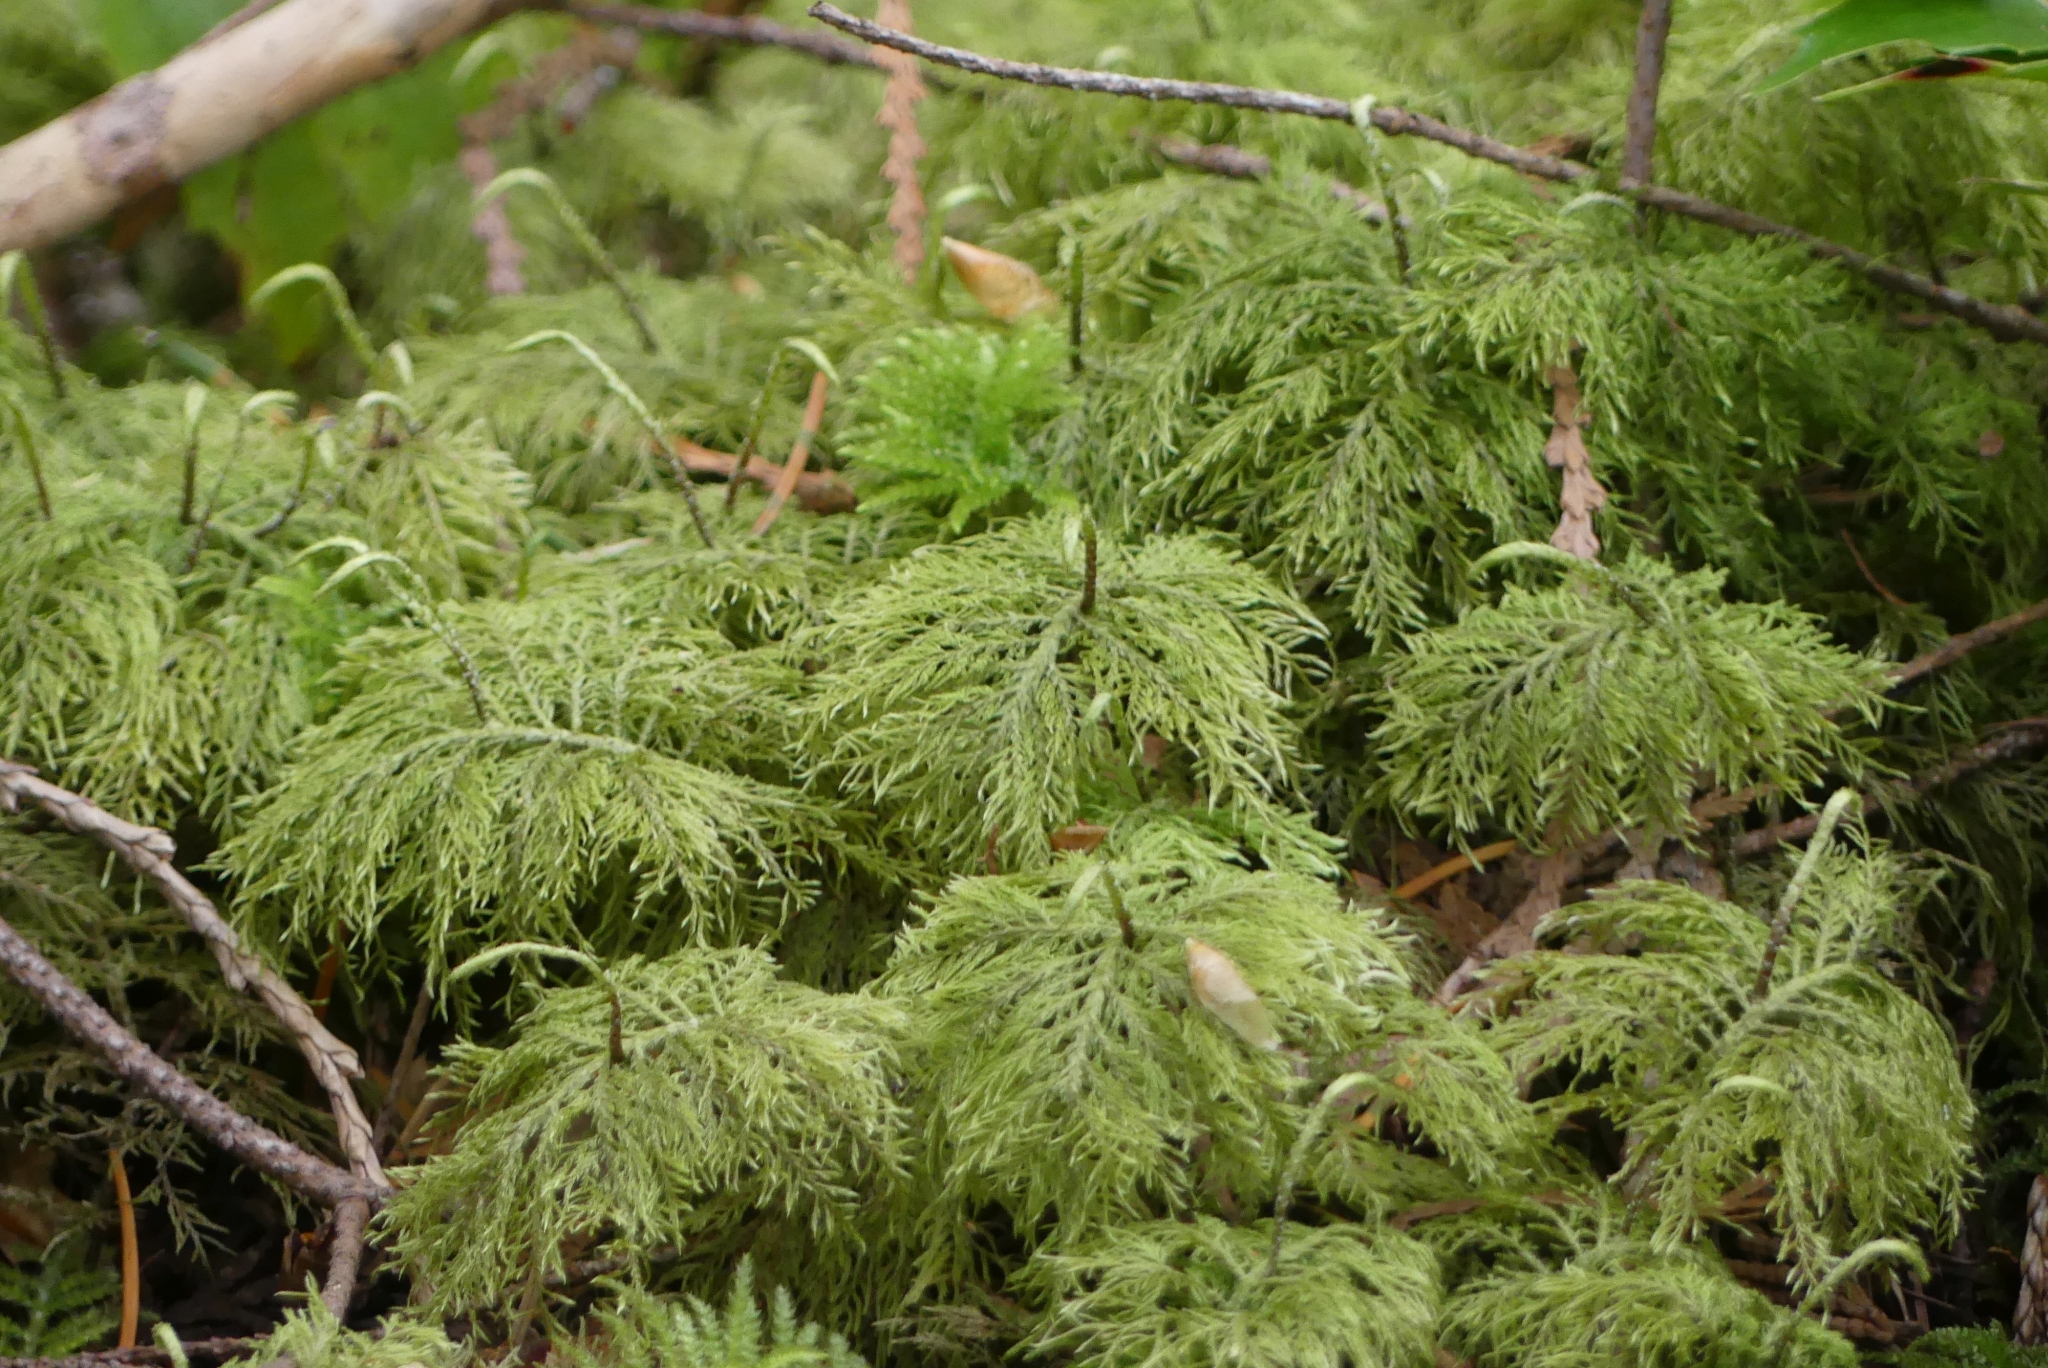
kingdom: Plantae
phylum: Bryophyta
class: Bryopsida
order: Hypnales
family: Hylocomiaceae
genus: Hylocomium
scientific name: Hylocomium splendens
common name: Stairstep moss
